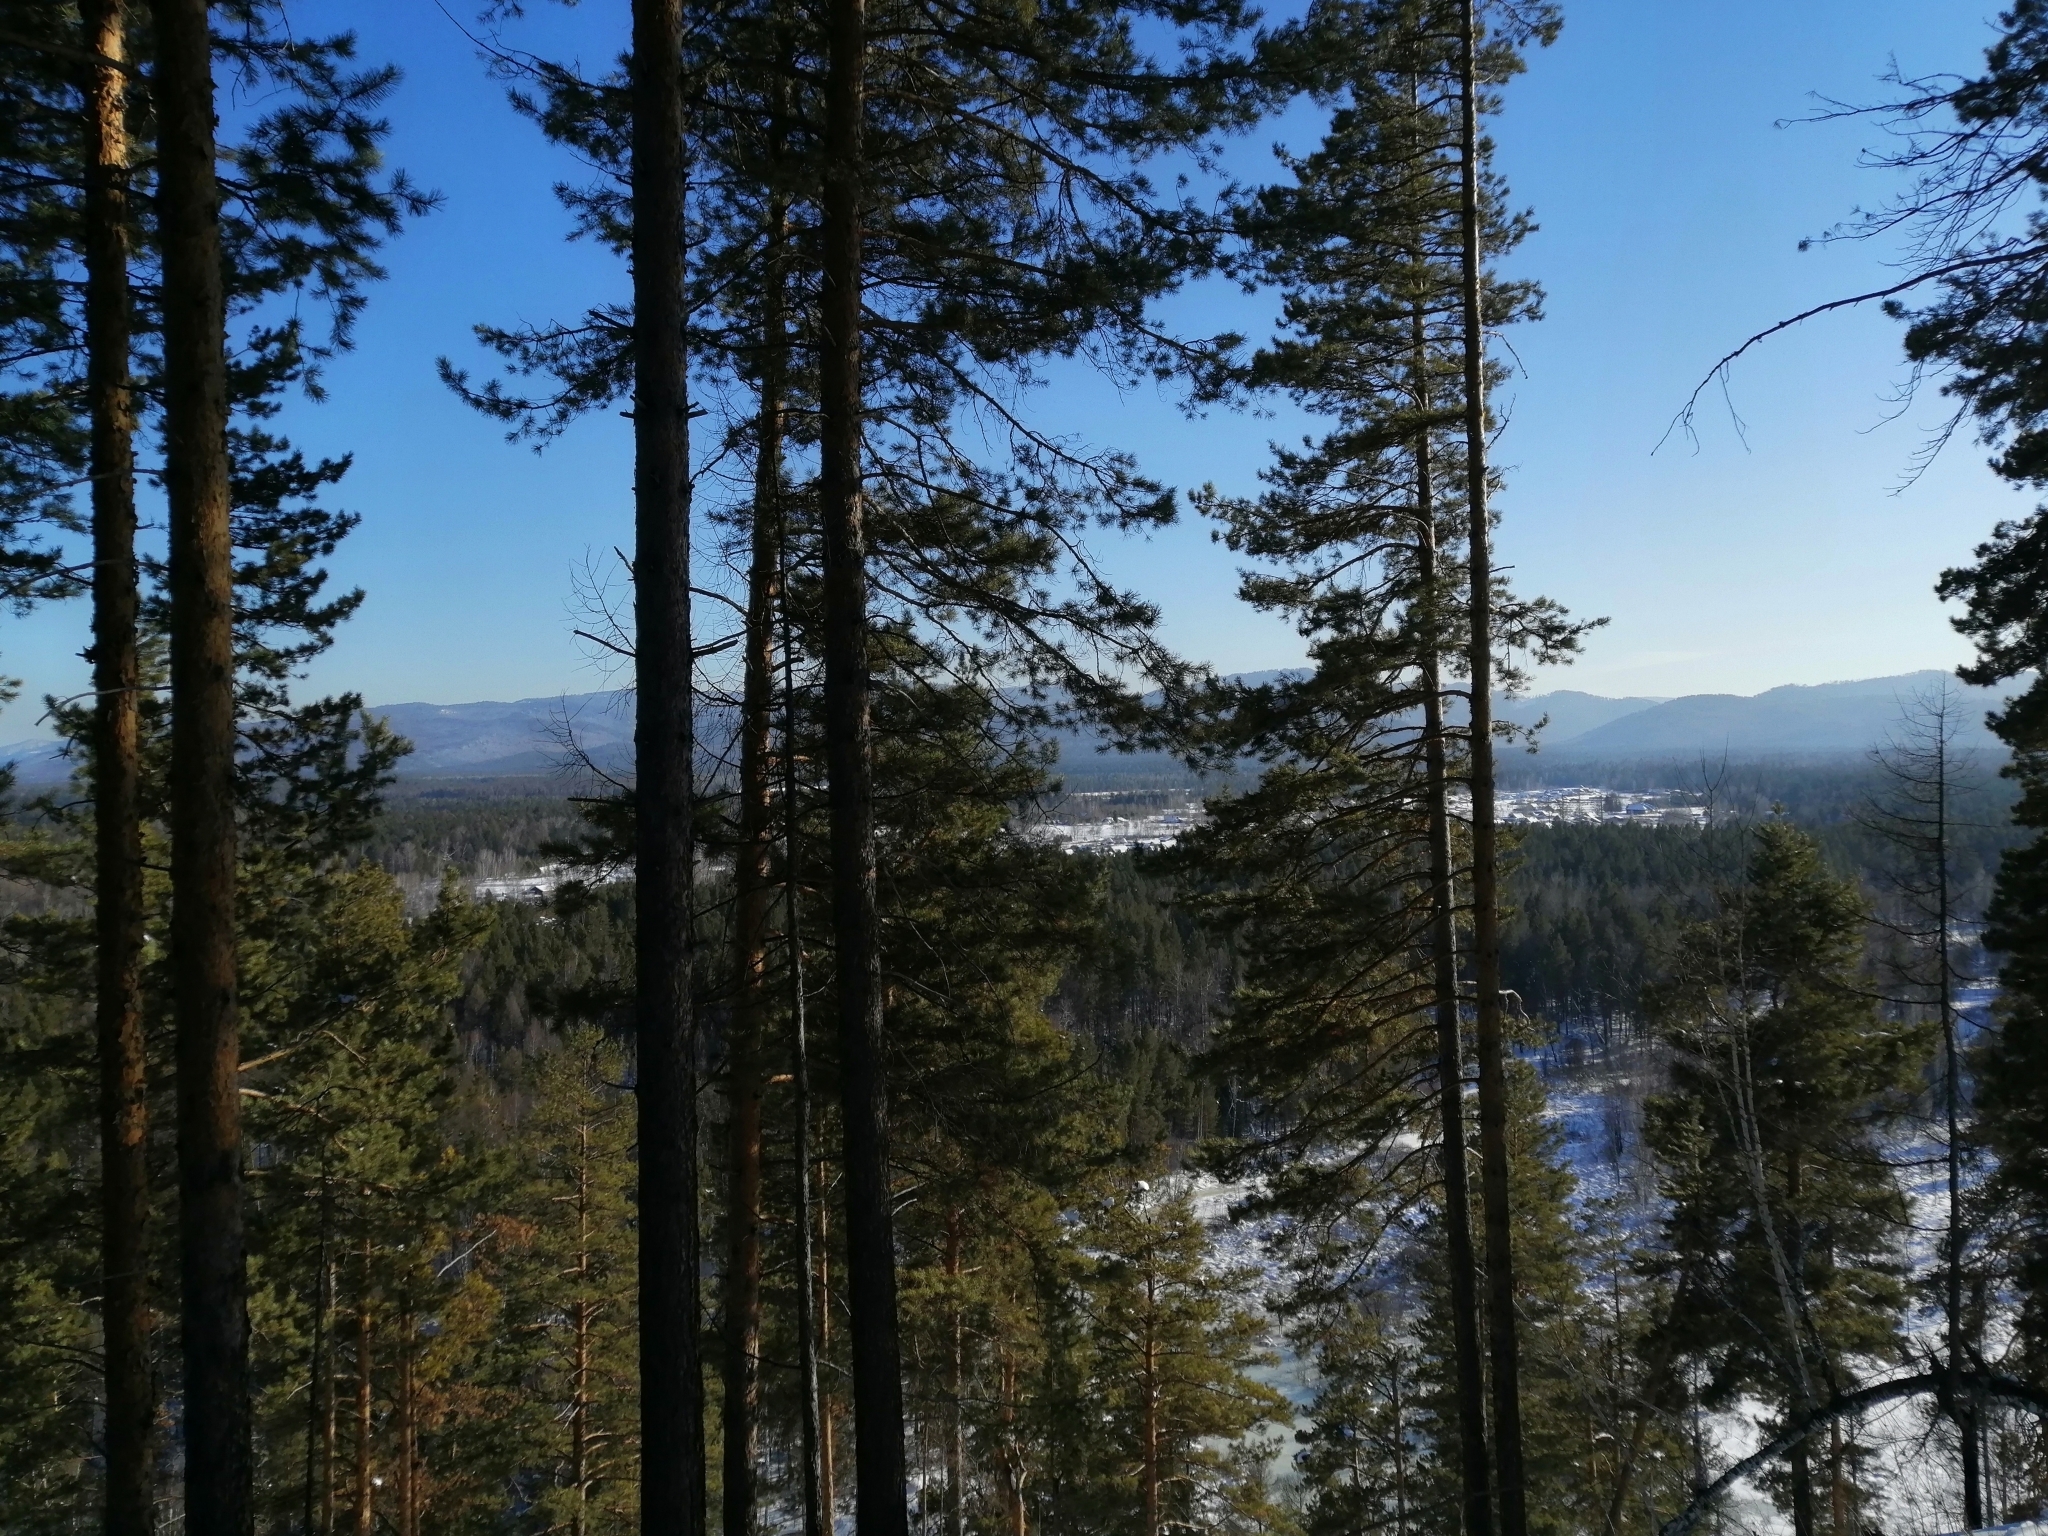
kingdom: Plantae
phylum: Tracheophyta
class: Pinopsida
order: Pinales
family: Pinaceae
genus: Pinus
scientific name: Pinus sibirica
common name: Siberian pine
